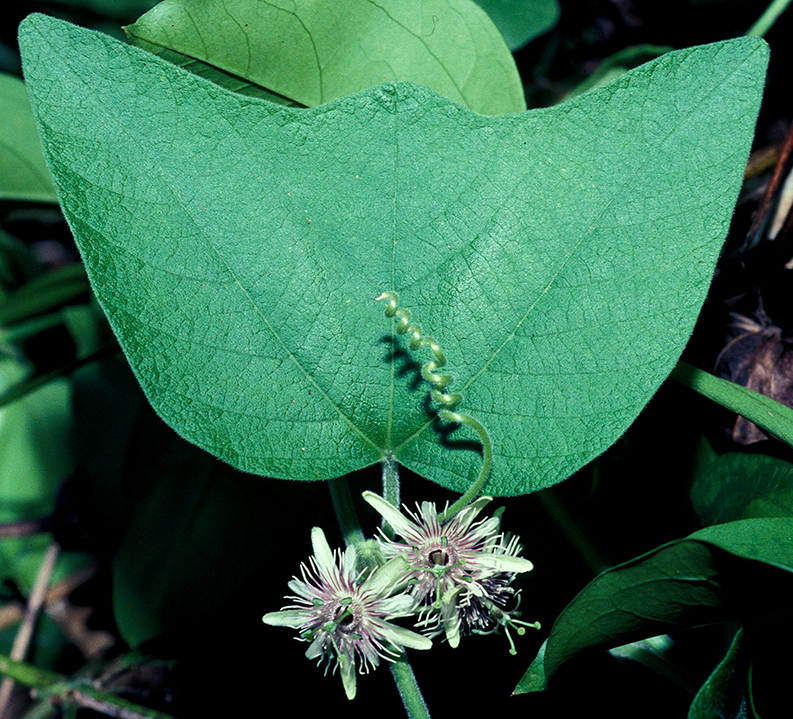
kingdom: Plantae
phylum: Tracheophyta
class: Magnoliopsida
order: Malpighiales
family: Passifloraceae
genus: Passiflora
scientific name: Passiflora sexflora
